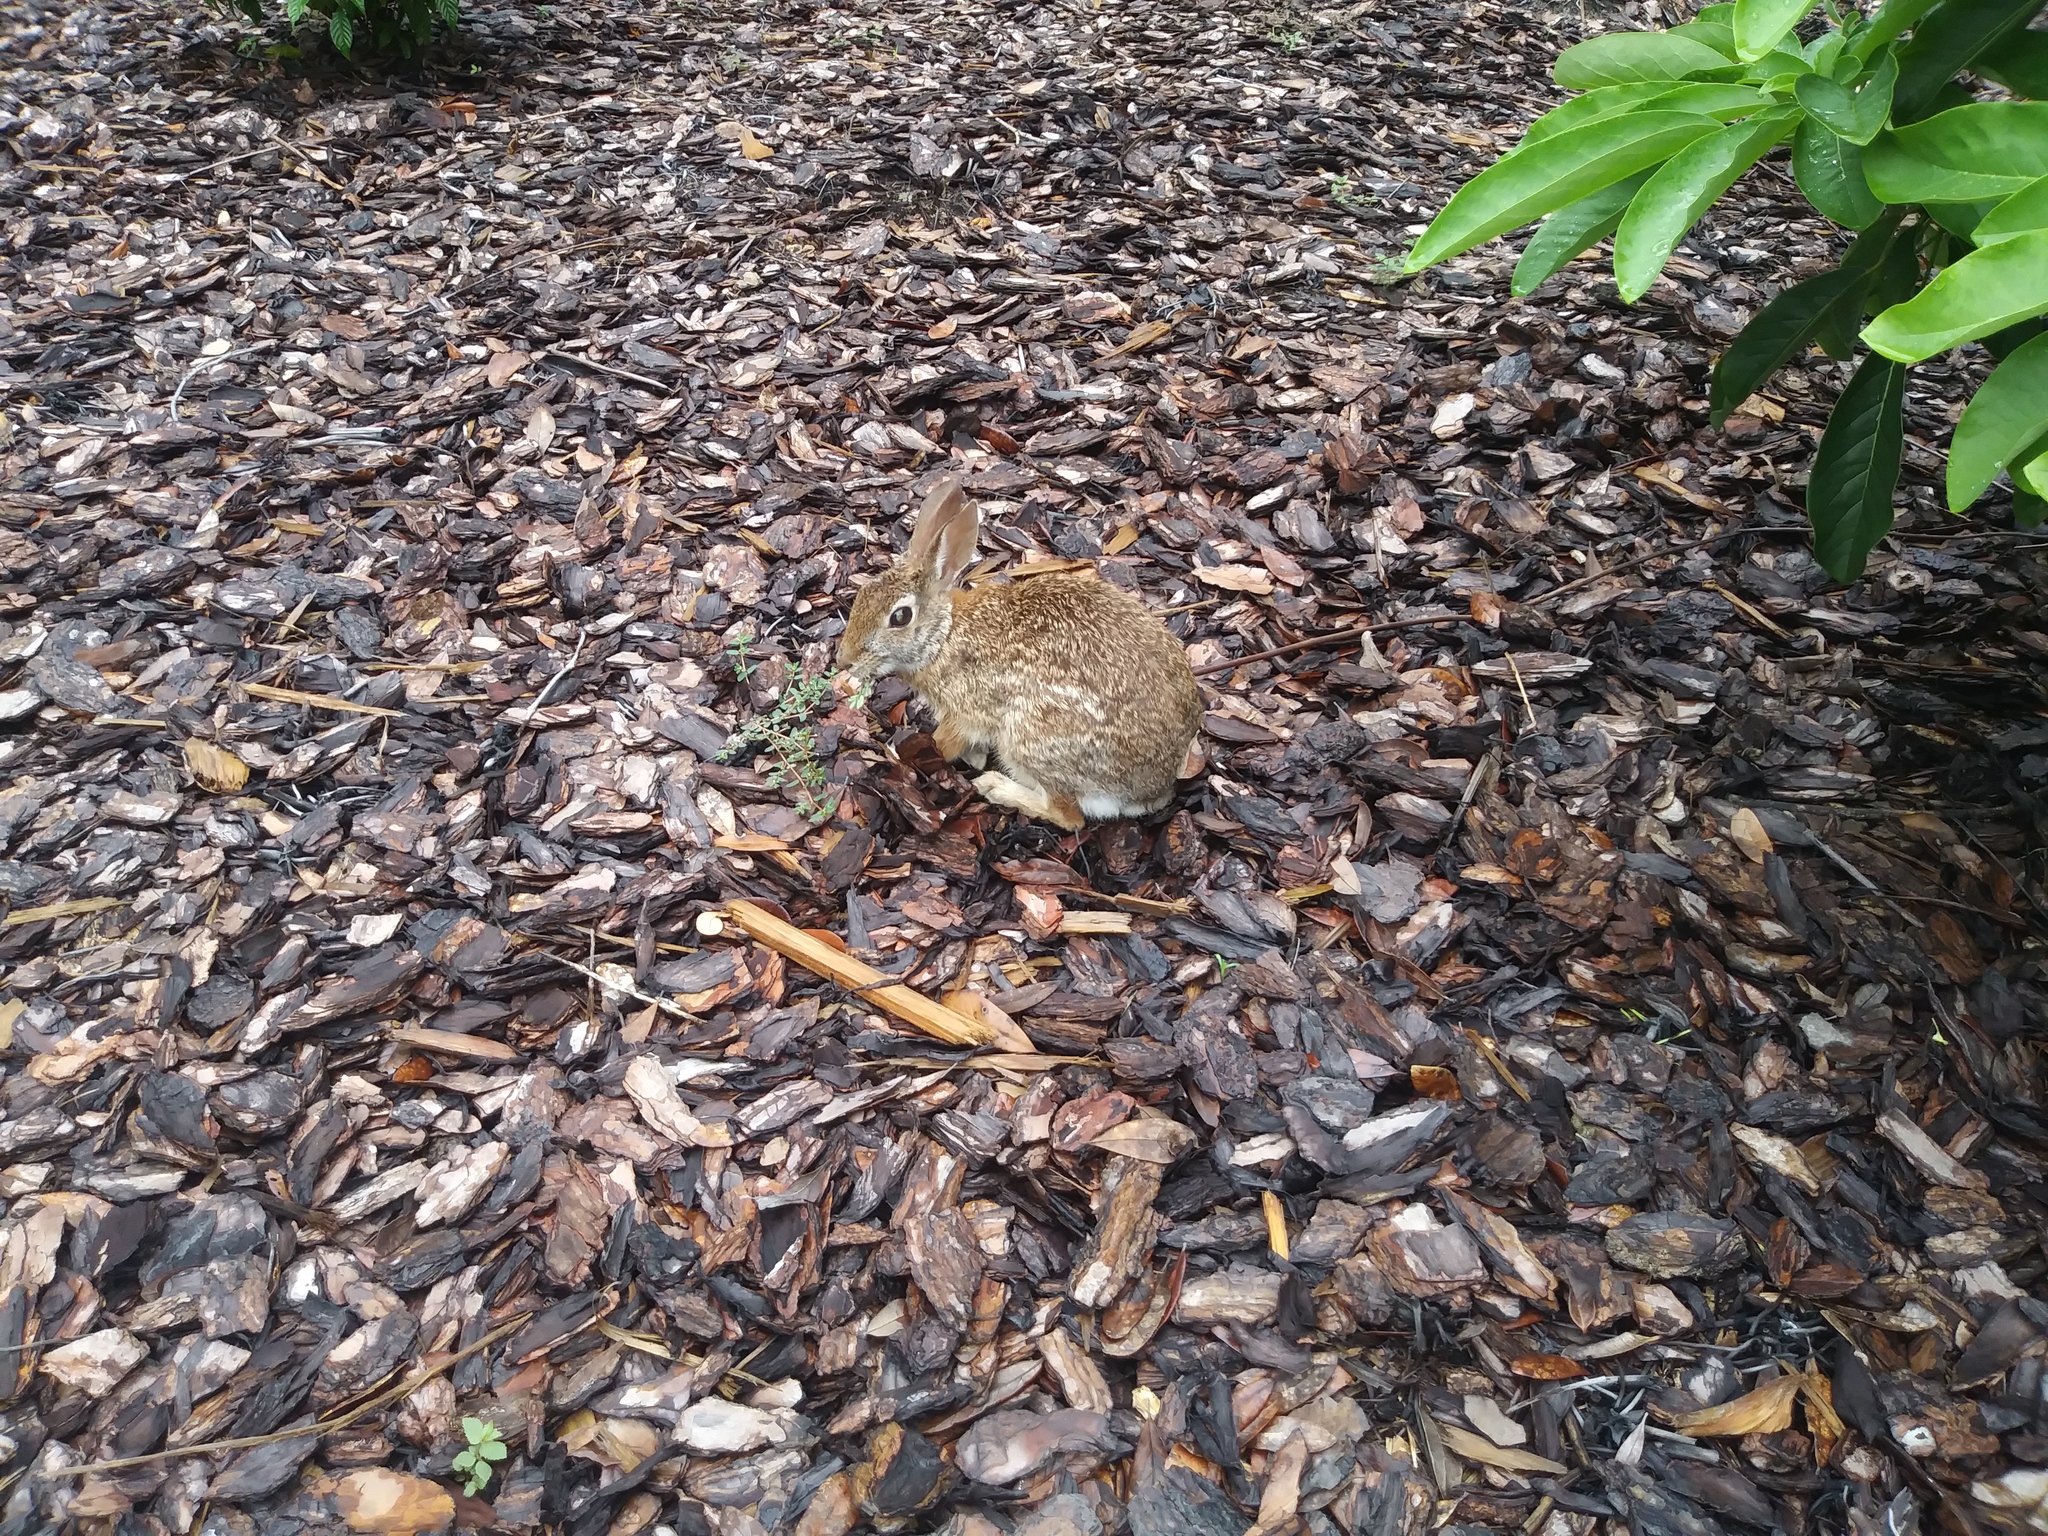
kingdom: Animalia
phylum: Chordata
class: Mammalia
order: Lagomorpha
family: Leporidae
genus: Sylvilagus
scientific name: Sylvilagus floridanus
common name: Eastern cottontail
